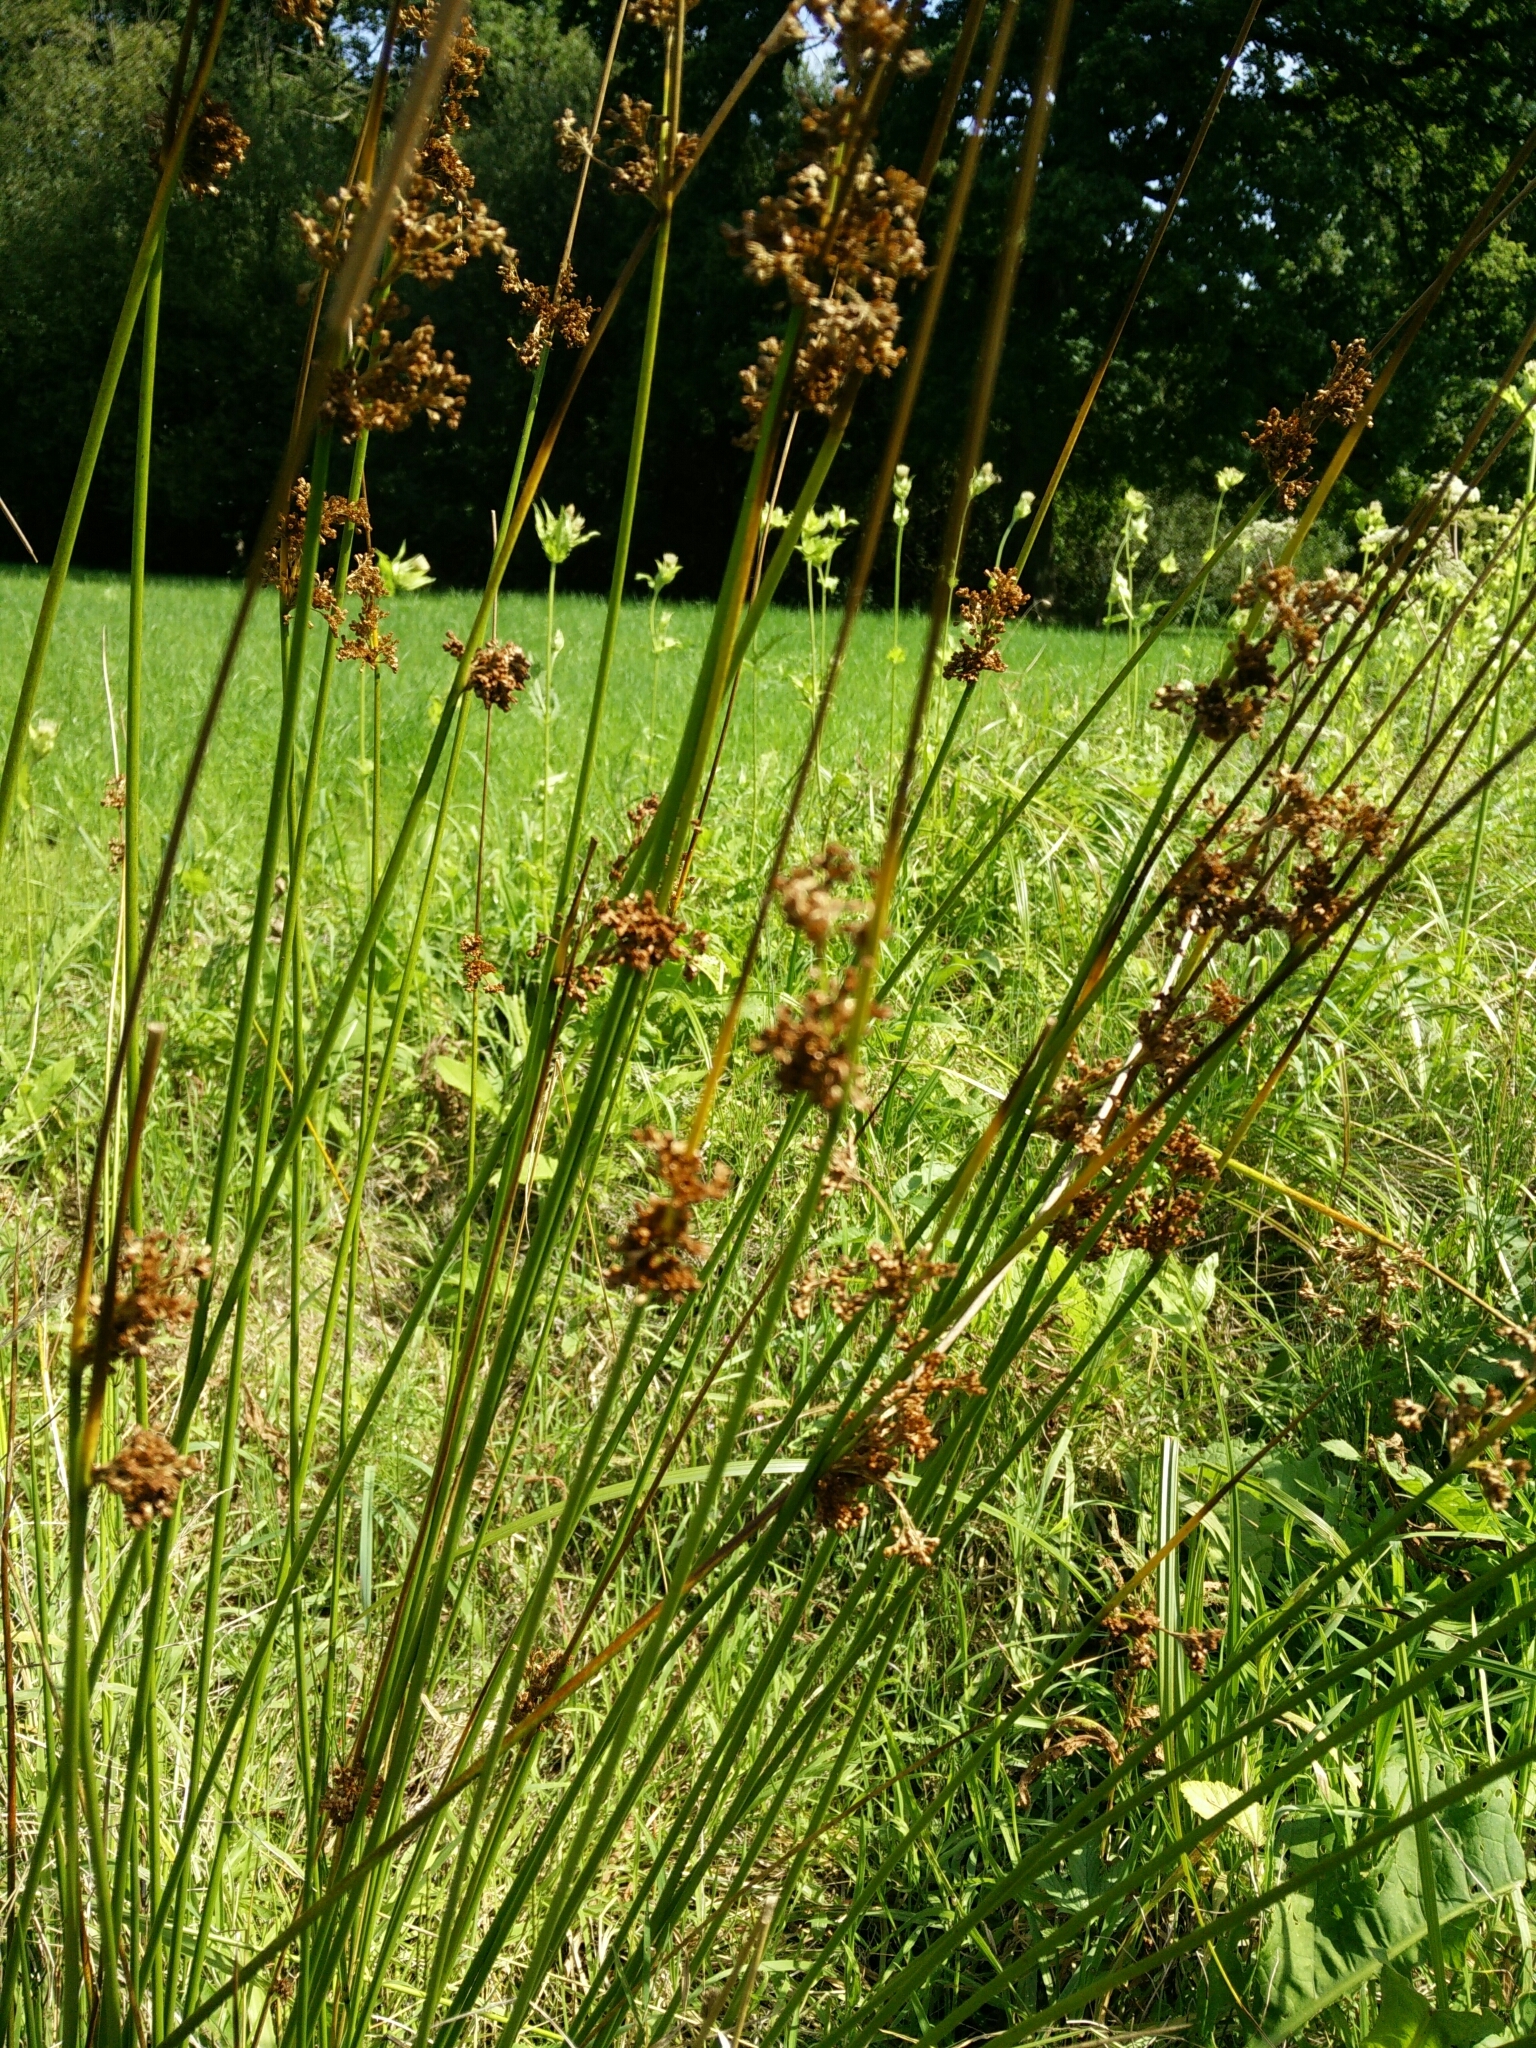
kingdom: Plantae
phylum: Tracheophyta
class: Liliopsida
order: Poales
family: Juncaceae
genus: Juncus
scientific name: Juncus effusus
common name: Soft rush
